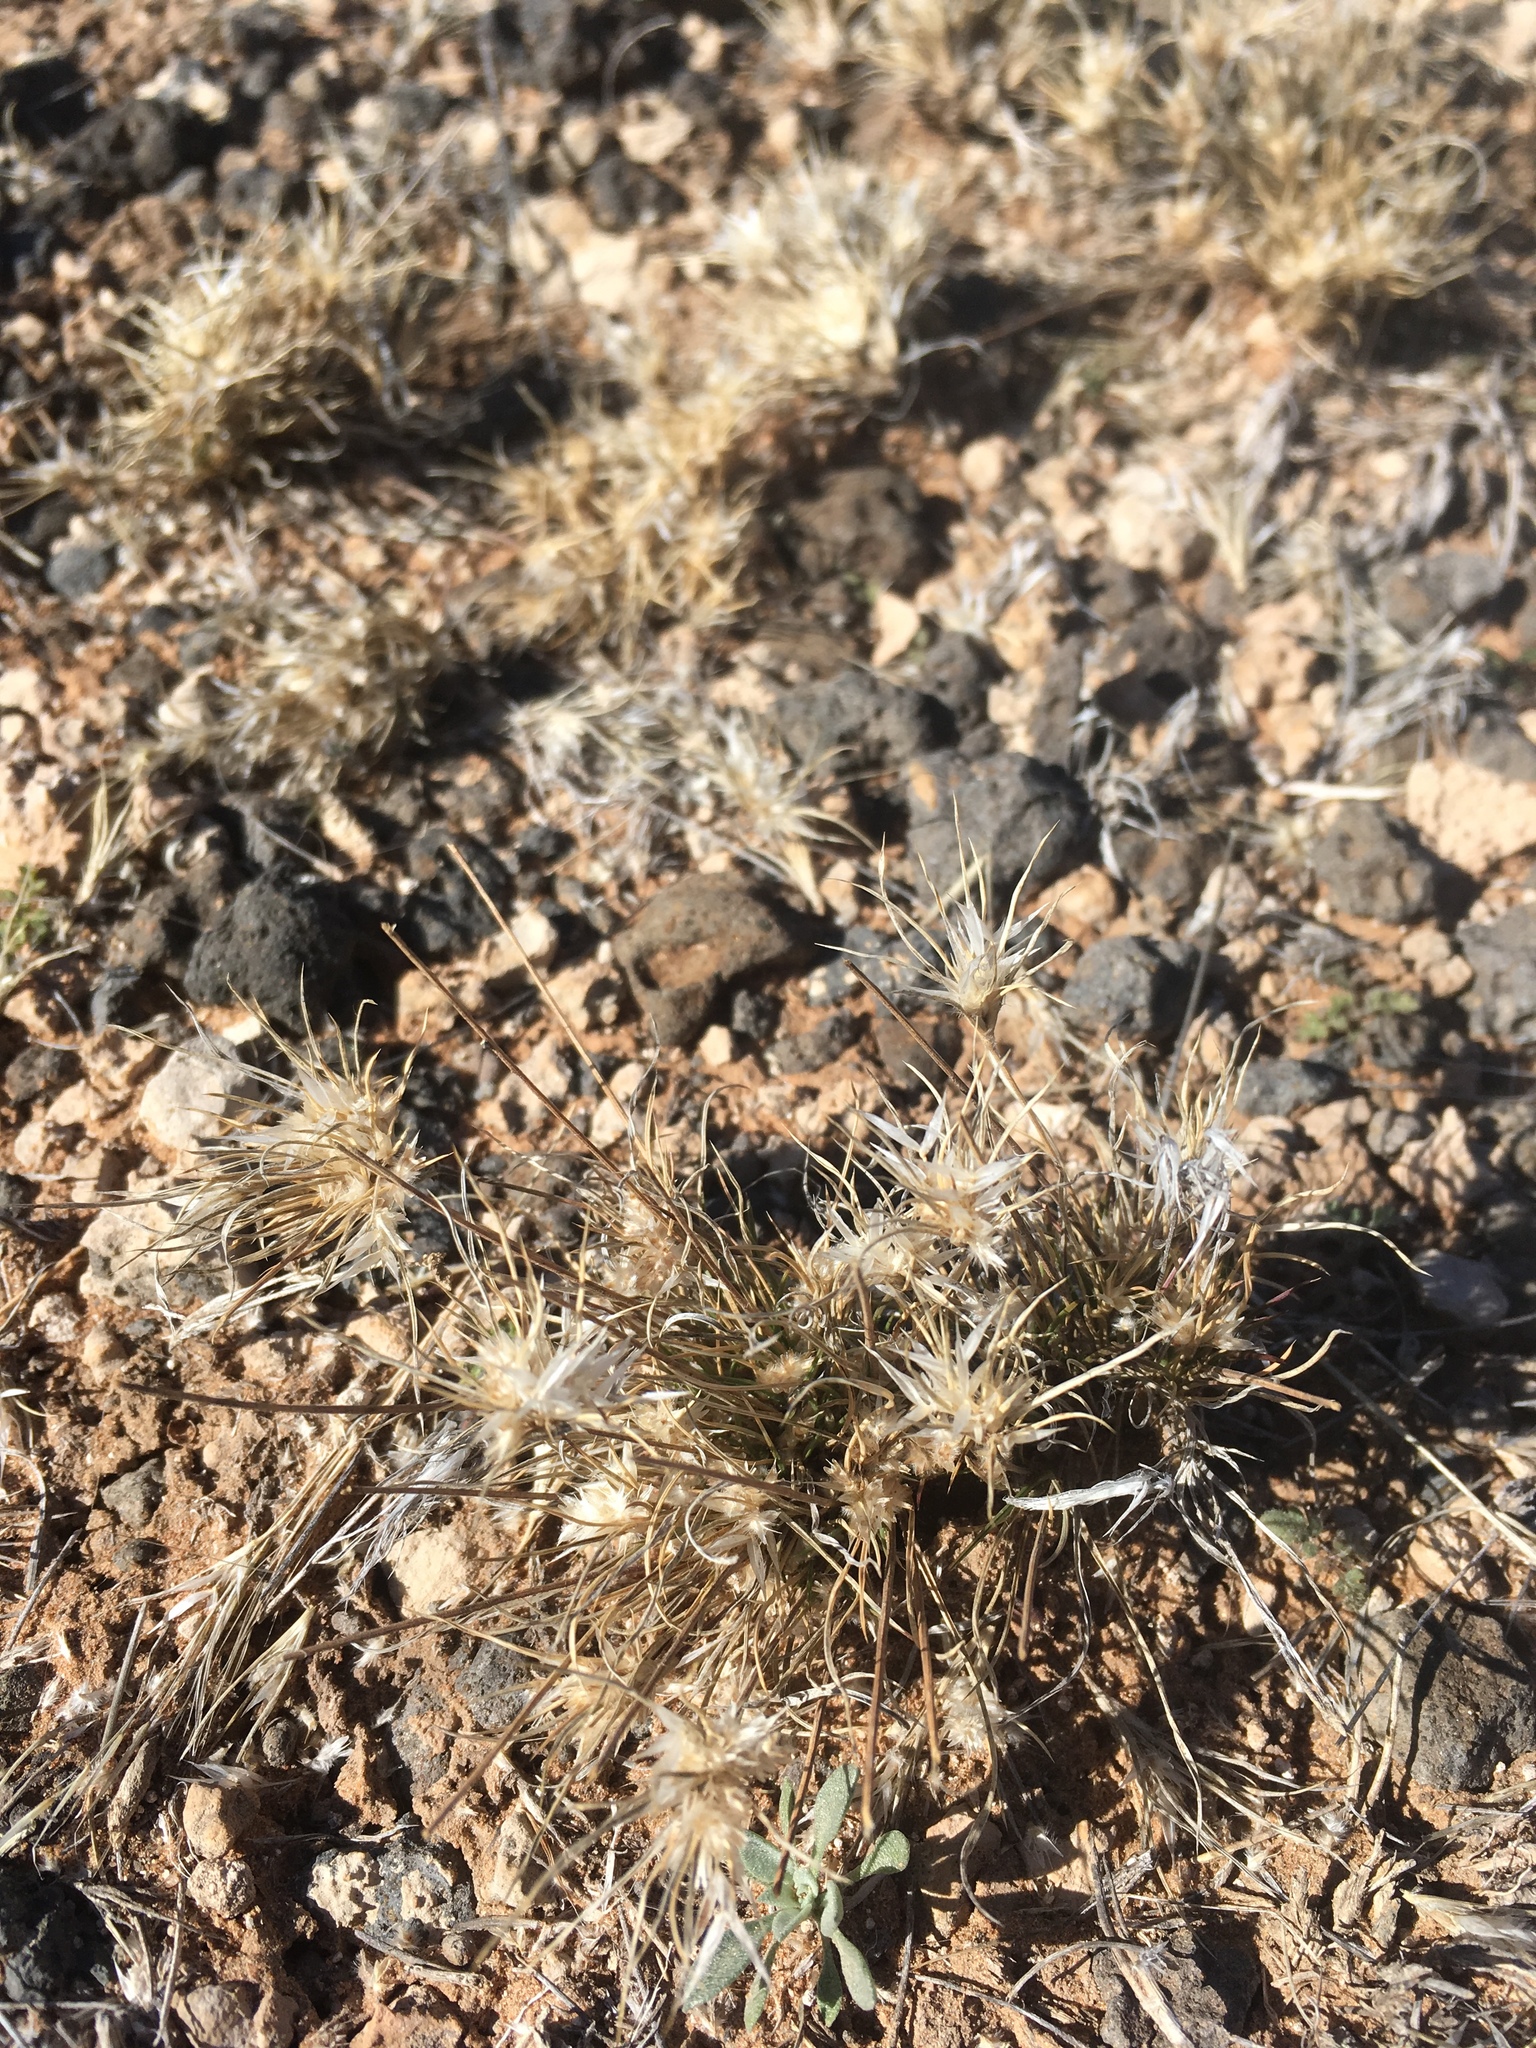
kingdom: Plantae
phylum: Tracheophyta
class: Liliopsida
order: Poales
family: Poaceae
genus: Dasyochloa
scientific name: Dasyochloa pulchella
